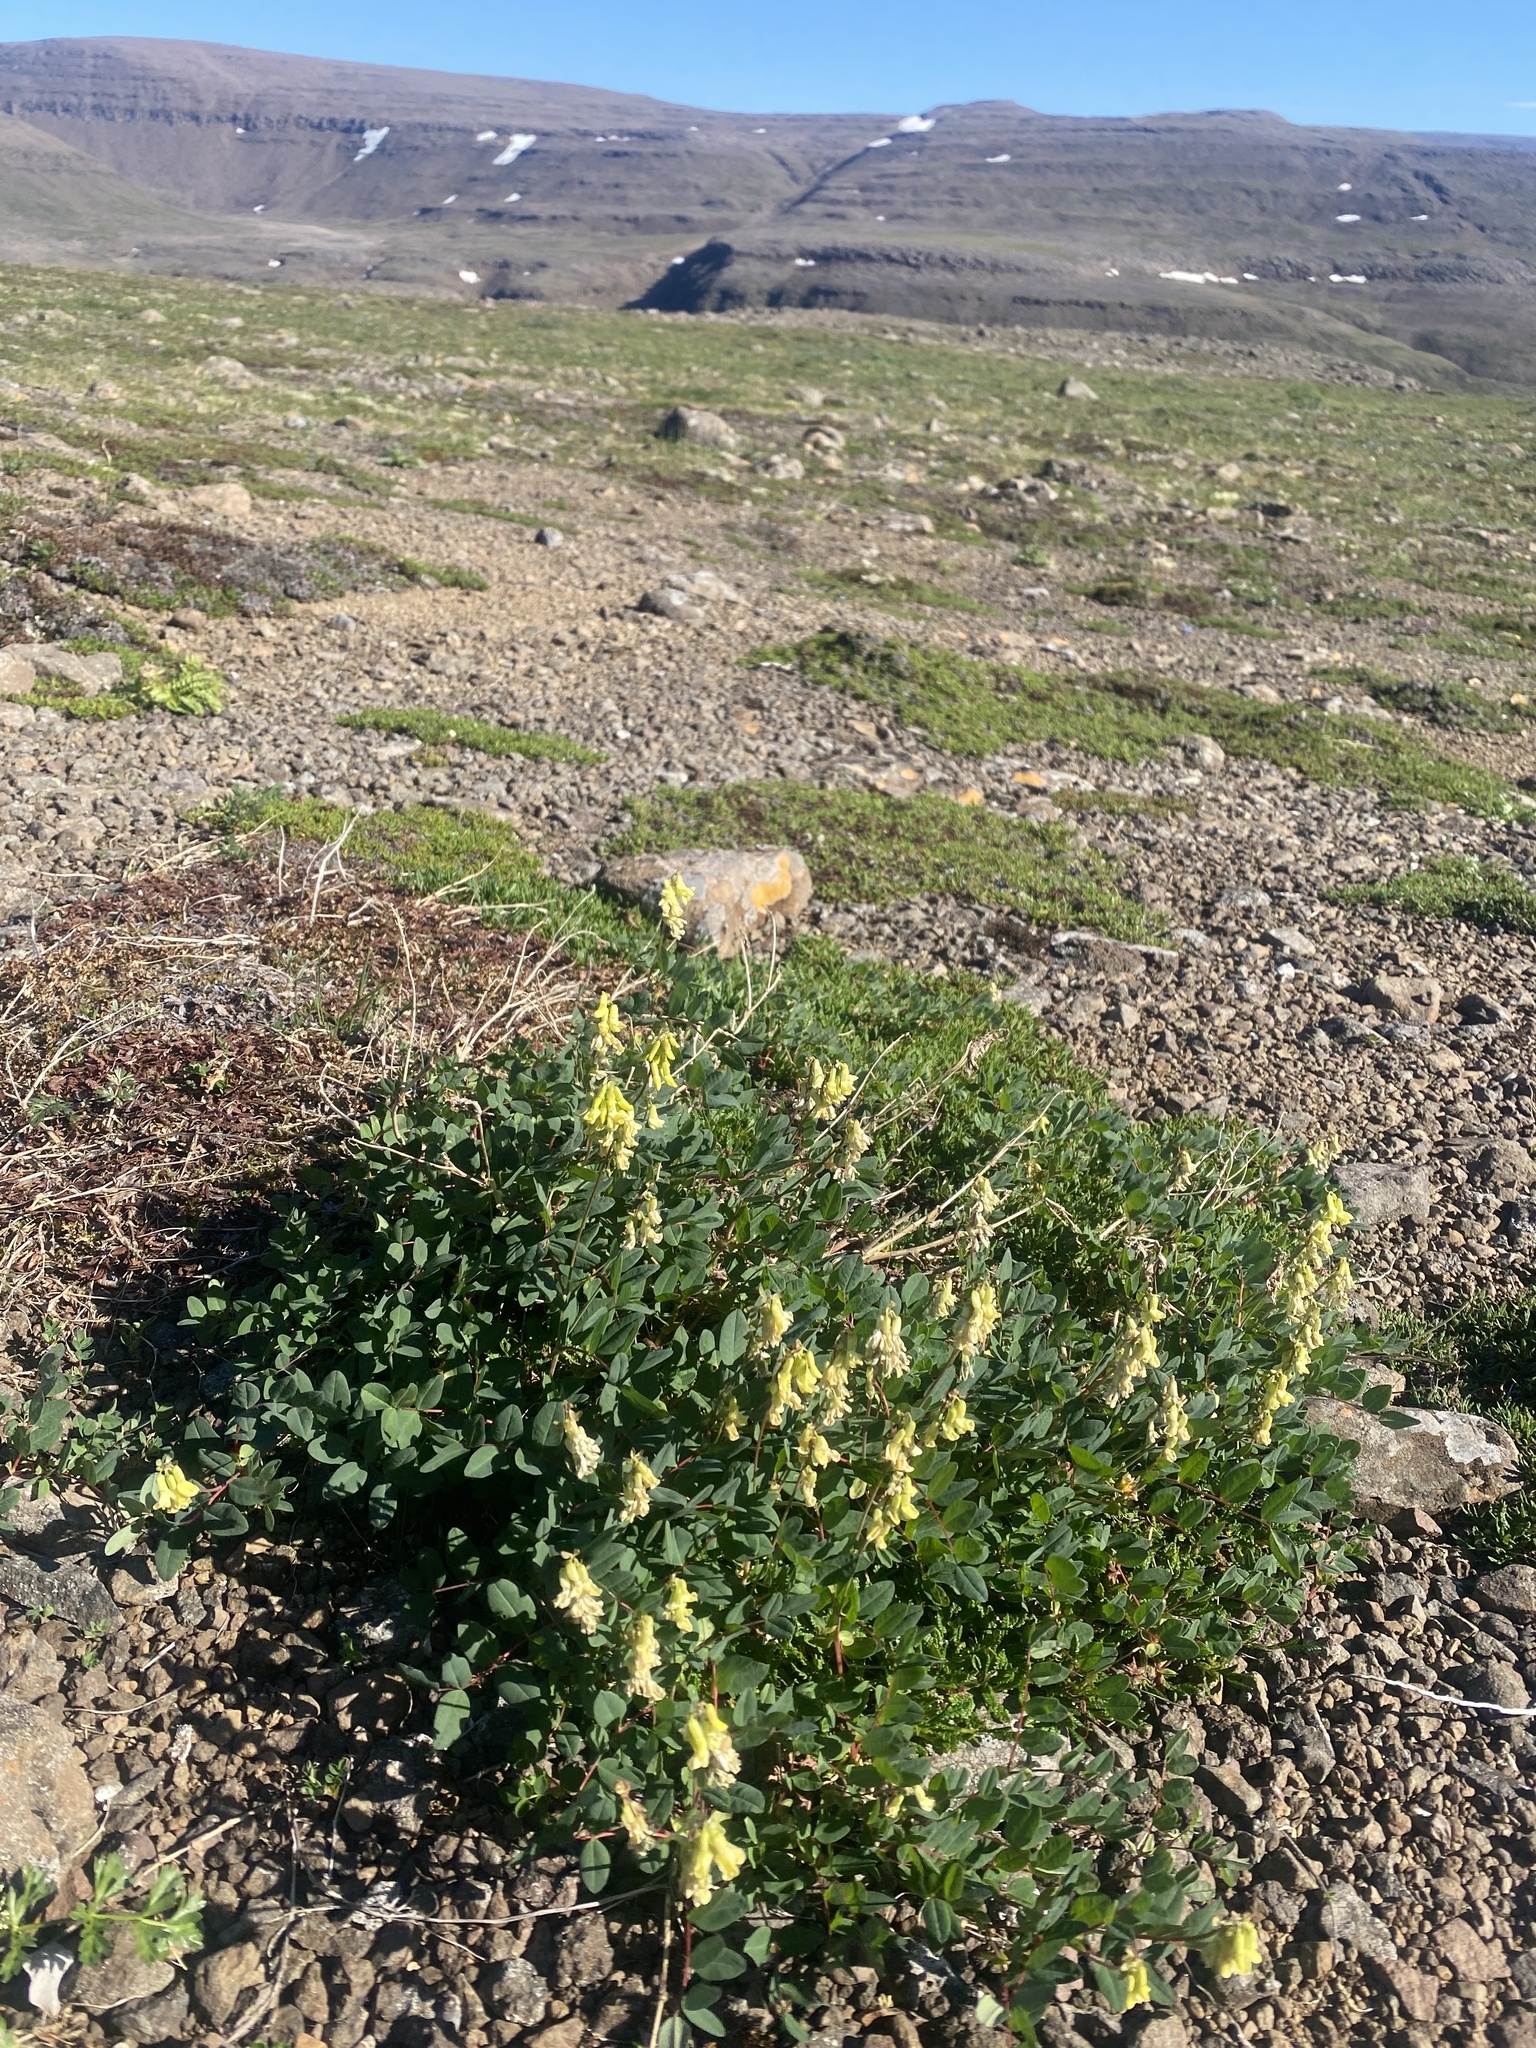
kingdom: Plantae
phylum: Tracheophyta
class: Magnoliopsida
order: Fabales
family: Fabaceae
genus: Astragalus
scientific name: Astragalus frigidus
